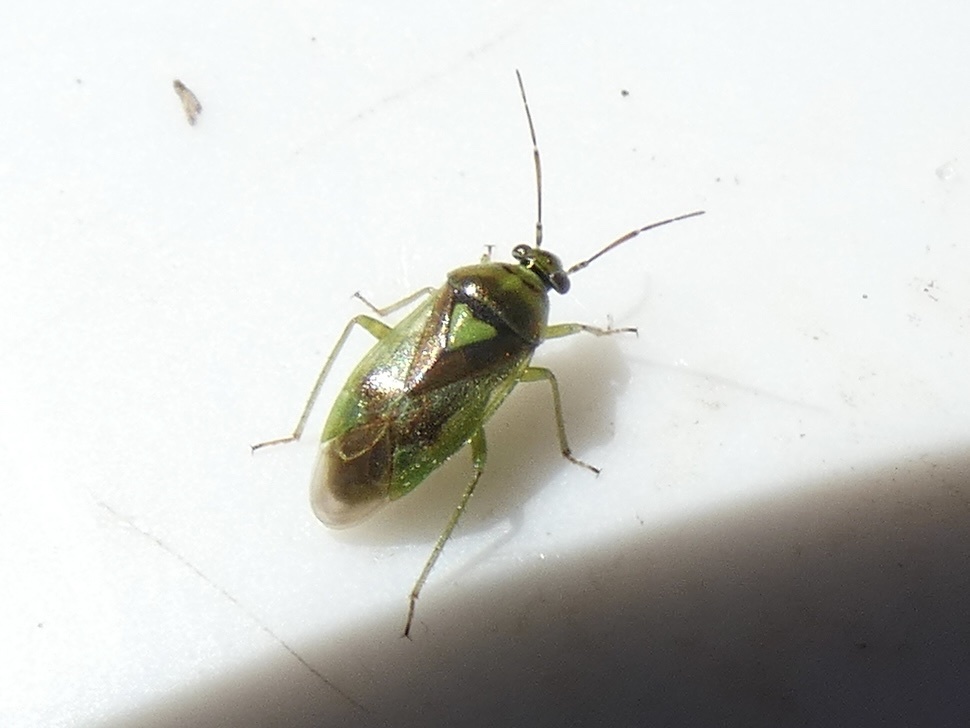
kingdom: Animalia
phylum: Arthropoda
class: Insecta
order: Hemiptera
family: Miridae
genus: Orthops
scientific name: Orthops campestris
